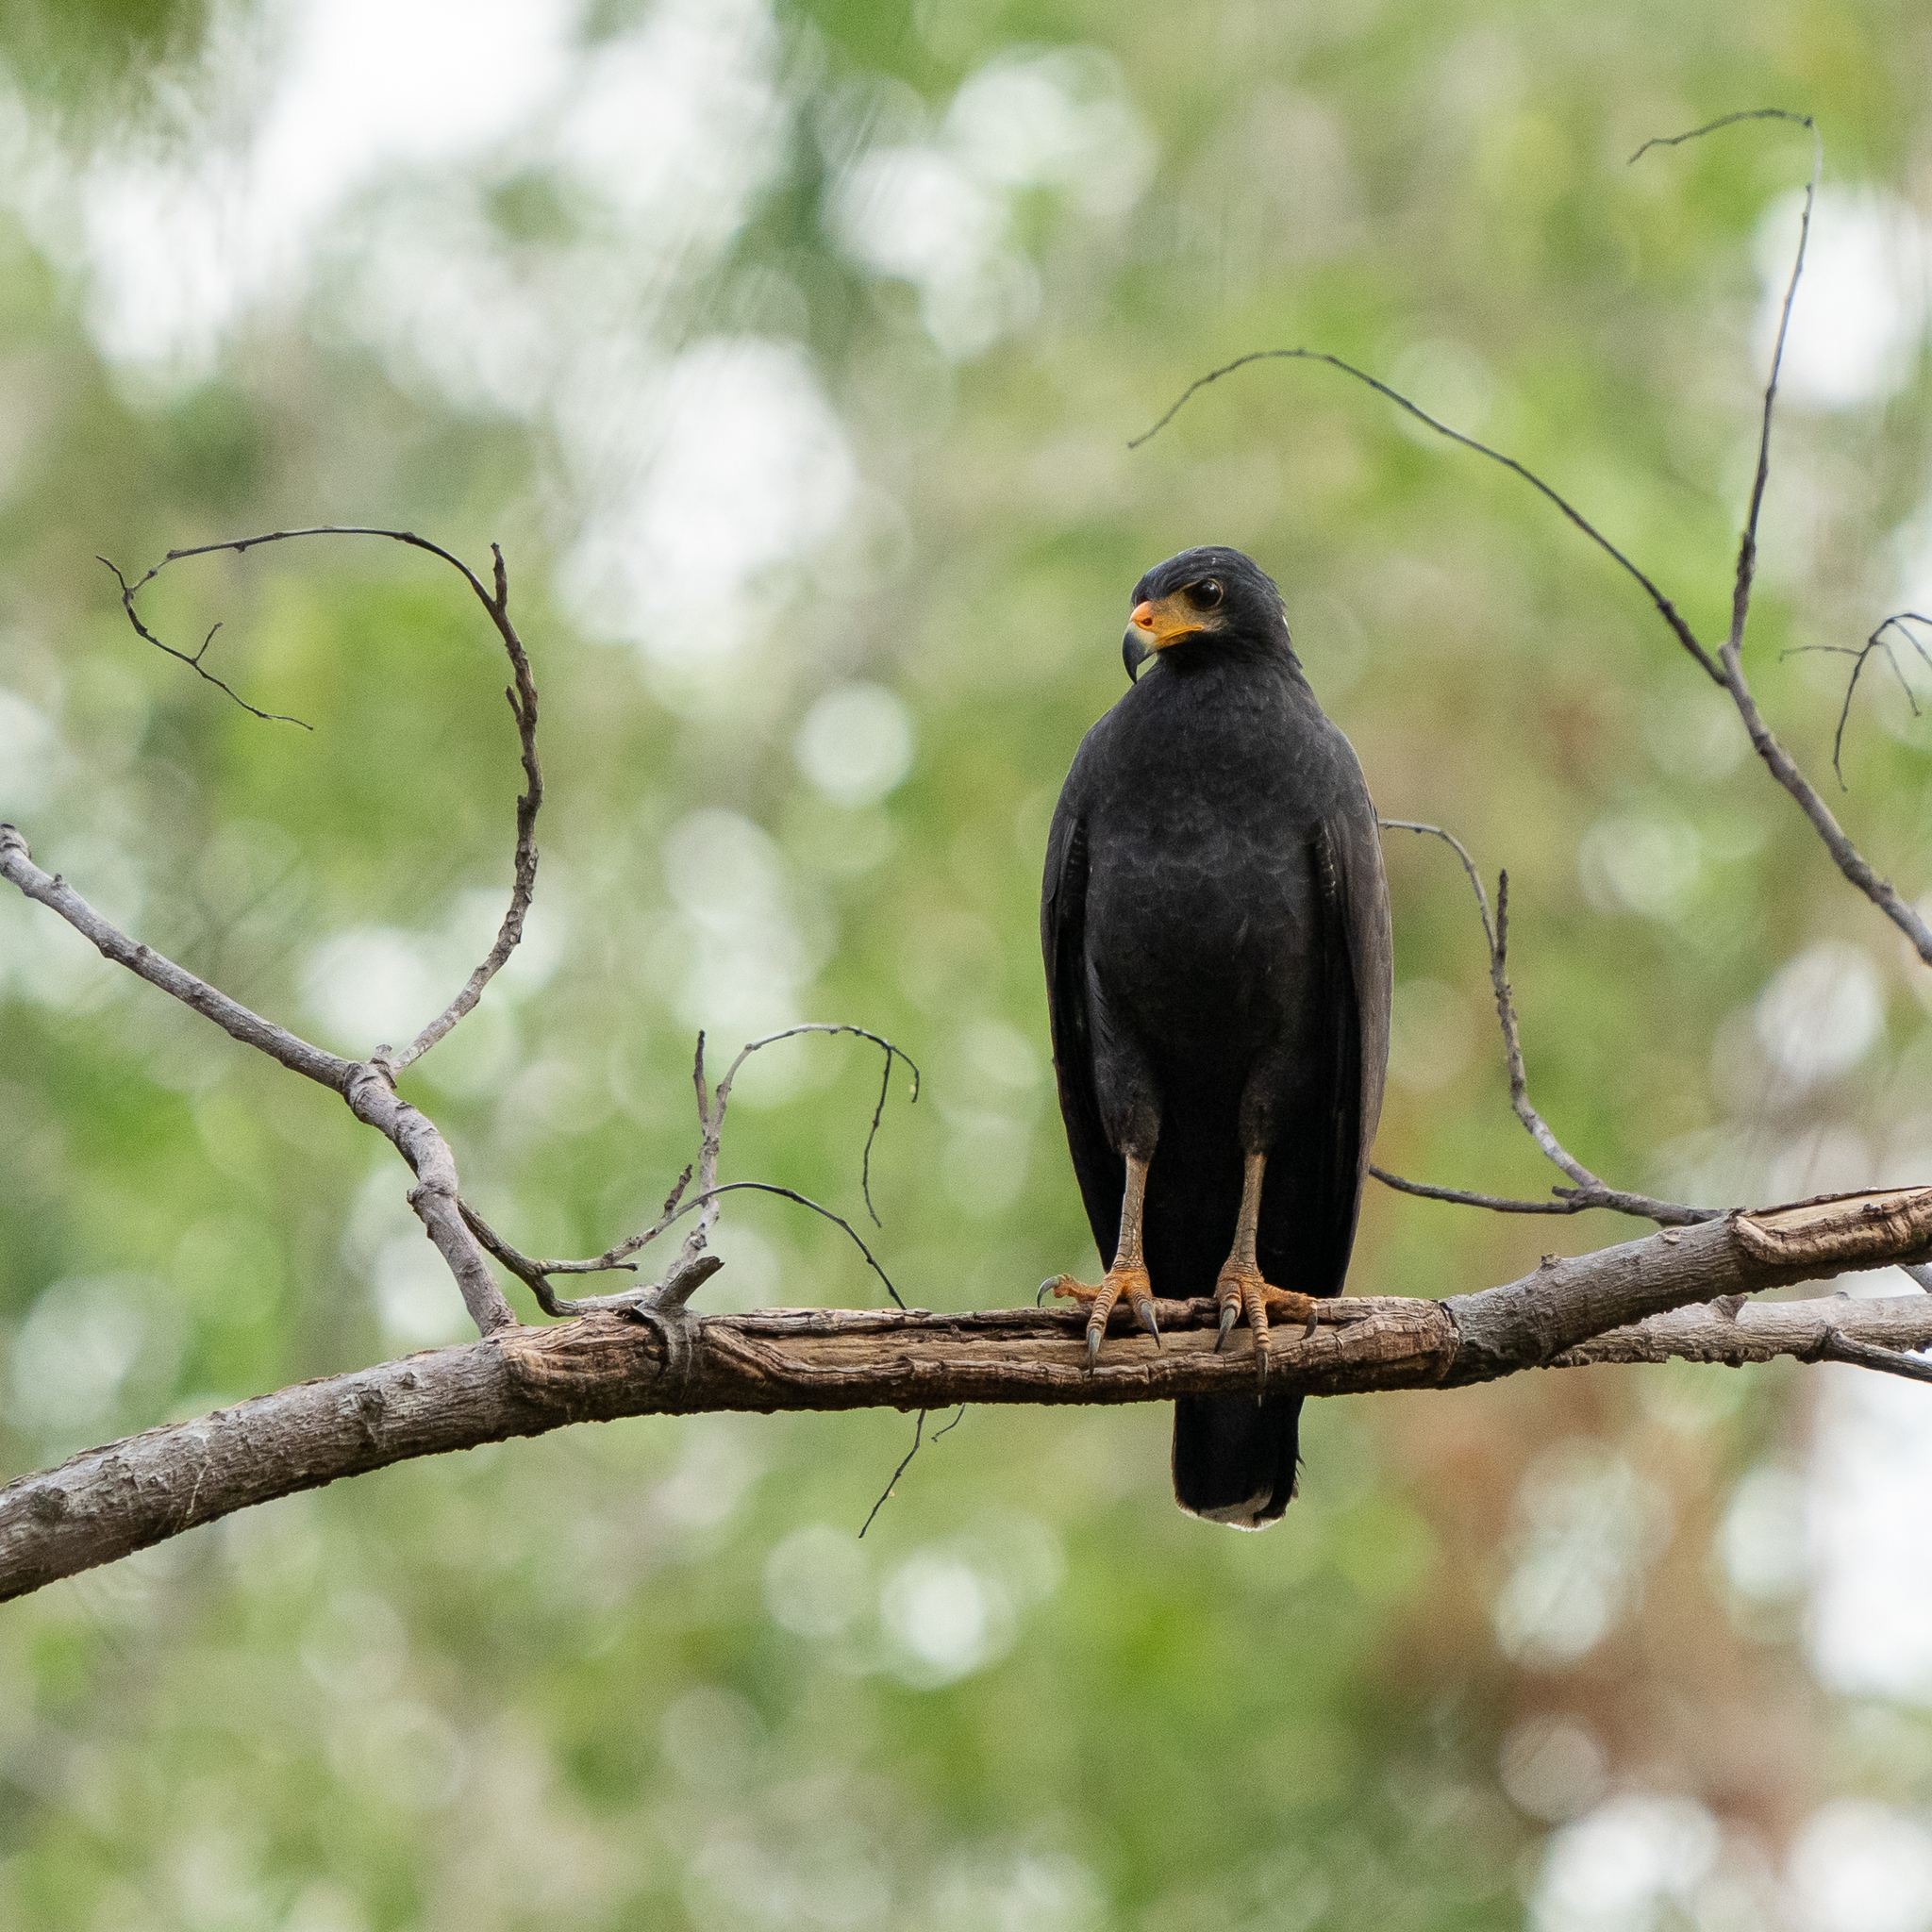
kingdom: Animalia
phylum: Chordata
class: Aves
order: Accipitriformes
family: Accipitridae
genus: Buteogallus
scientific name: Buteogallus anthracinus
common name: Common black hawk
